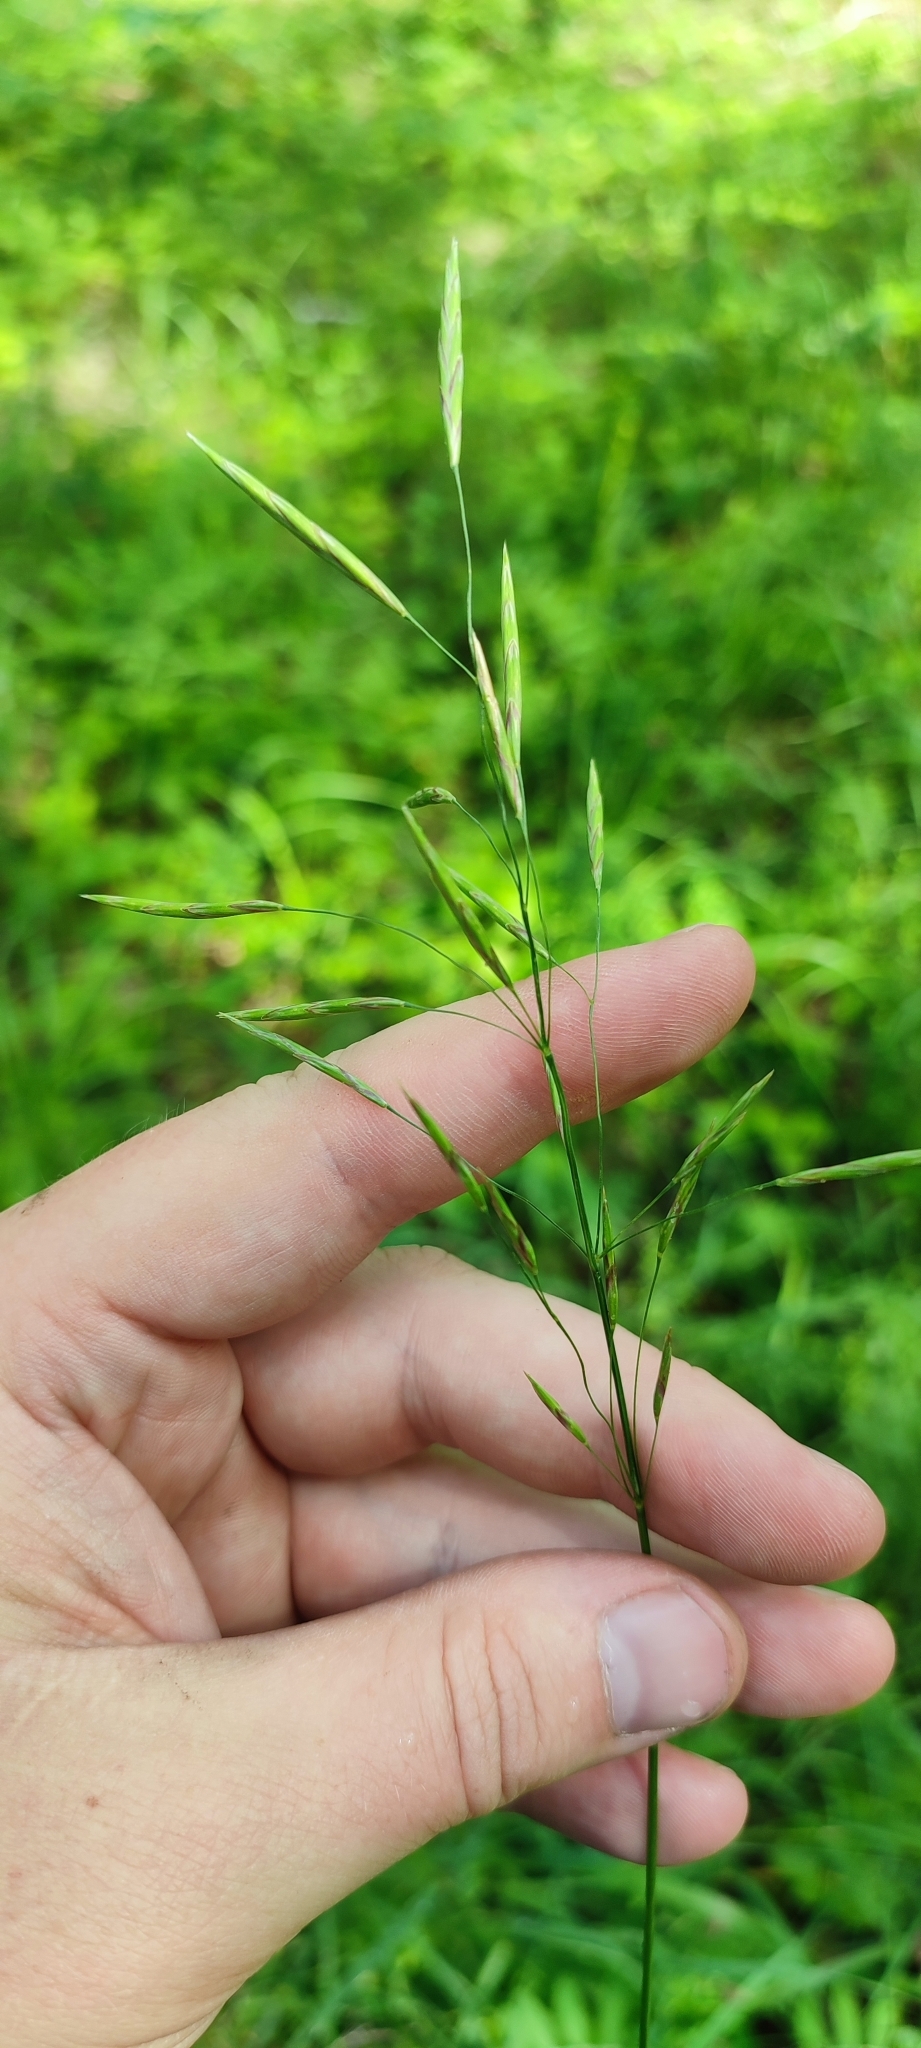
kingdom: Plantae
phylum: Tracheophyta
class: Liliopsida
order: Poales
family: Poaceae
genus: Bromus
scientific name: Bromus inermis
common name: Smooth brome
